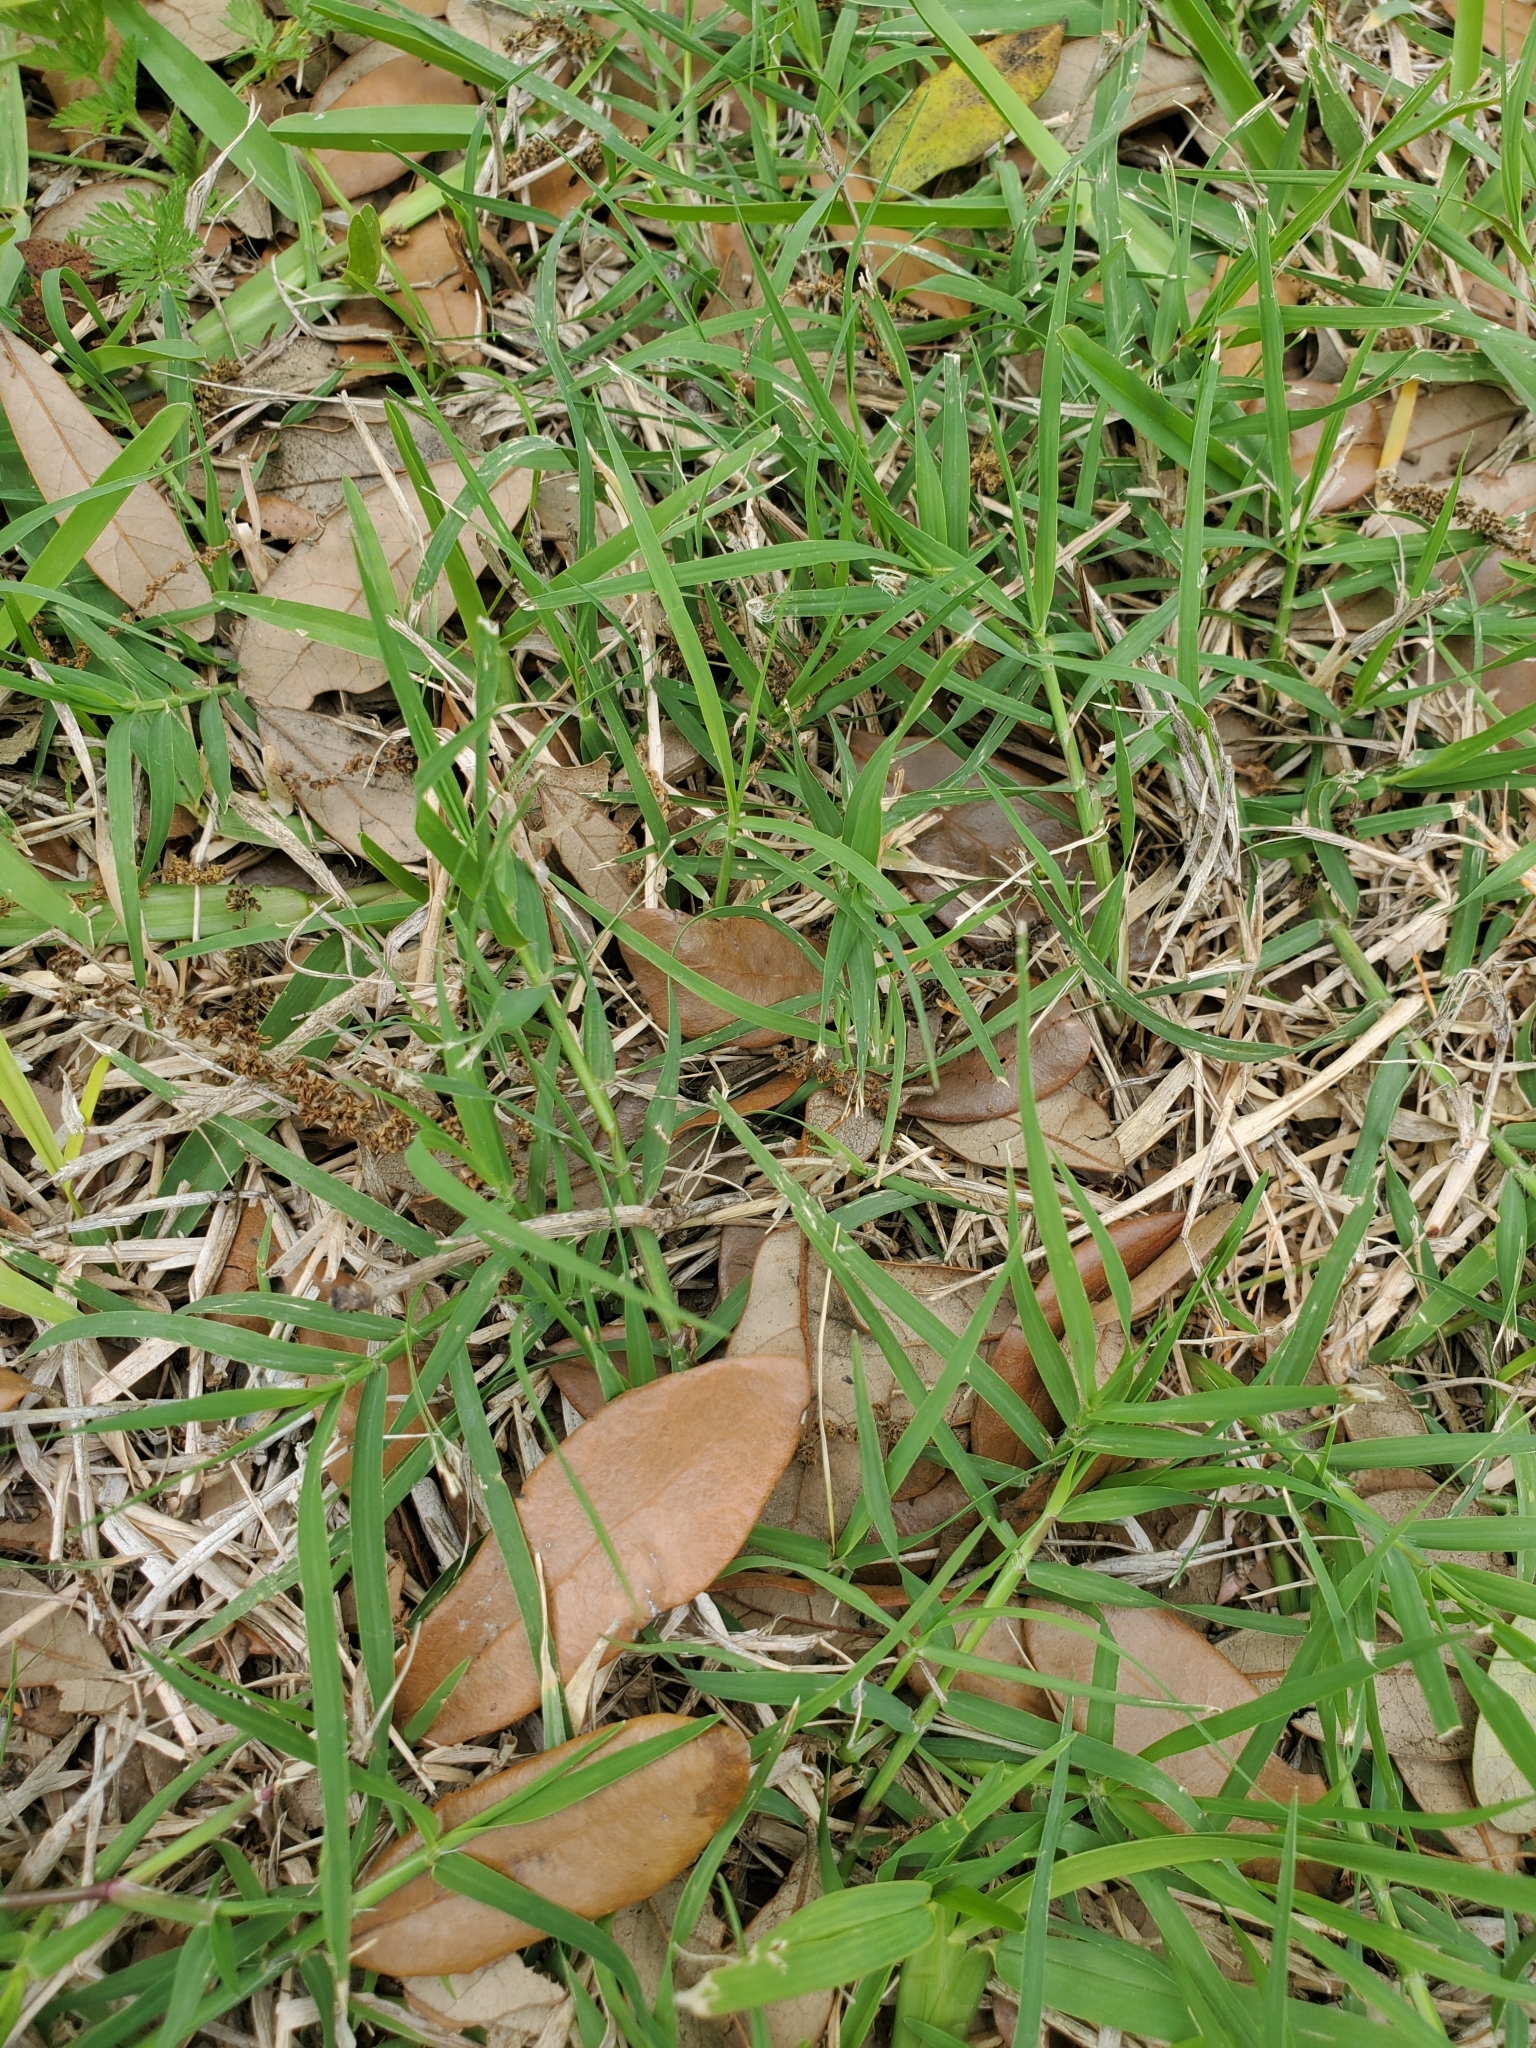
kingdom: Plantae
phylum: Tracheophyta
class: Liliopsida
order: Poales
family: Poaceae
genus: Cynodon
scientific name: Cynodon dactylon
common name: Bermuda grass
